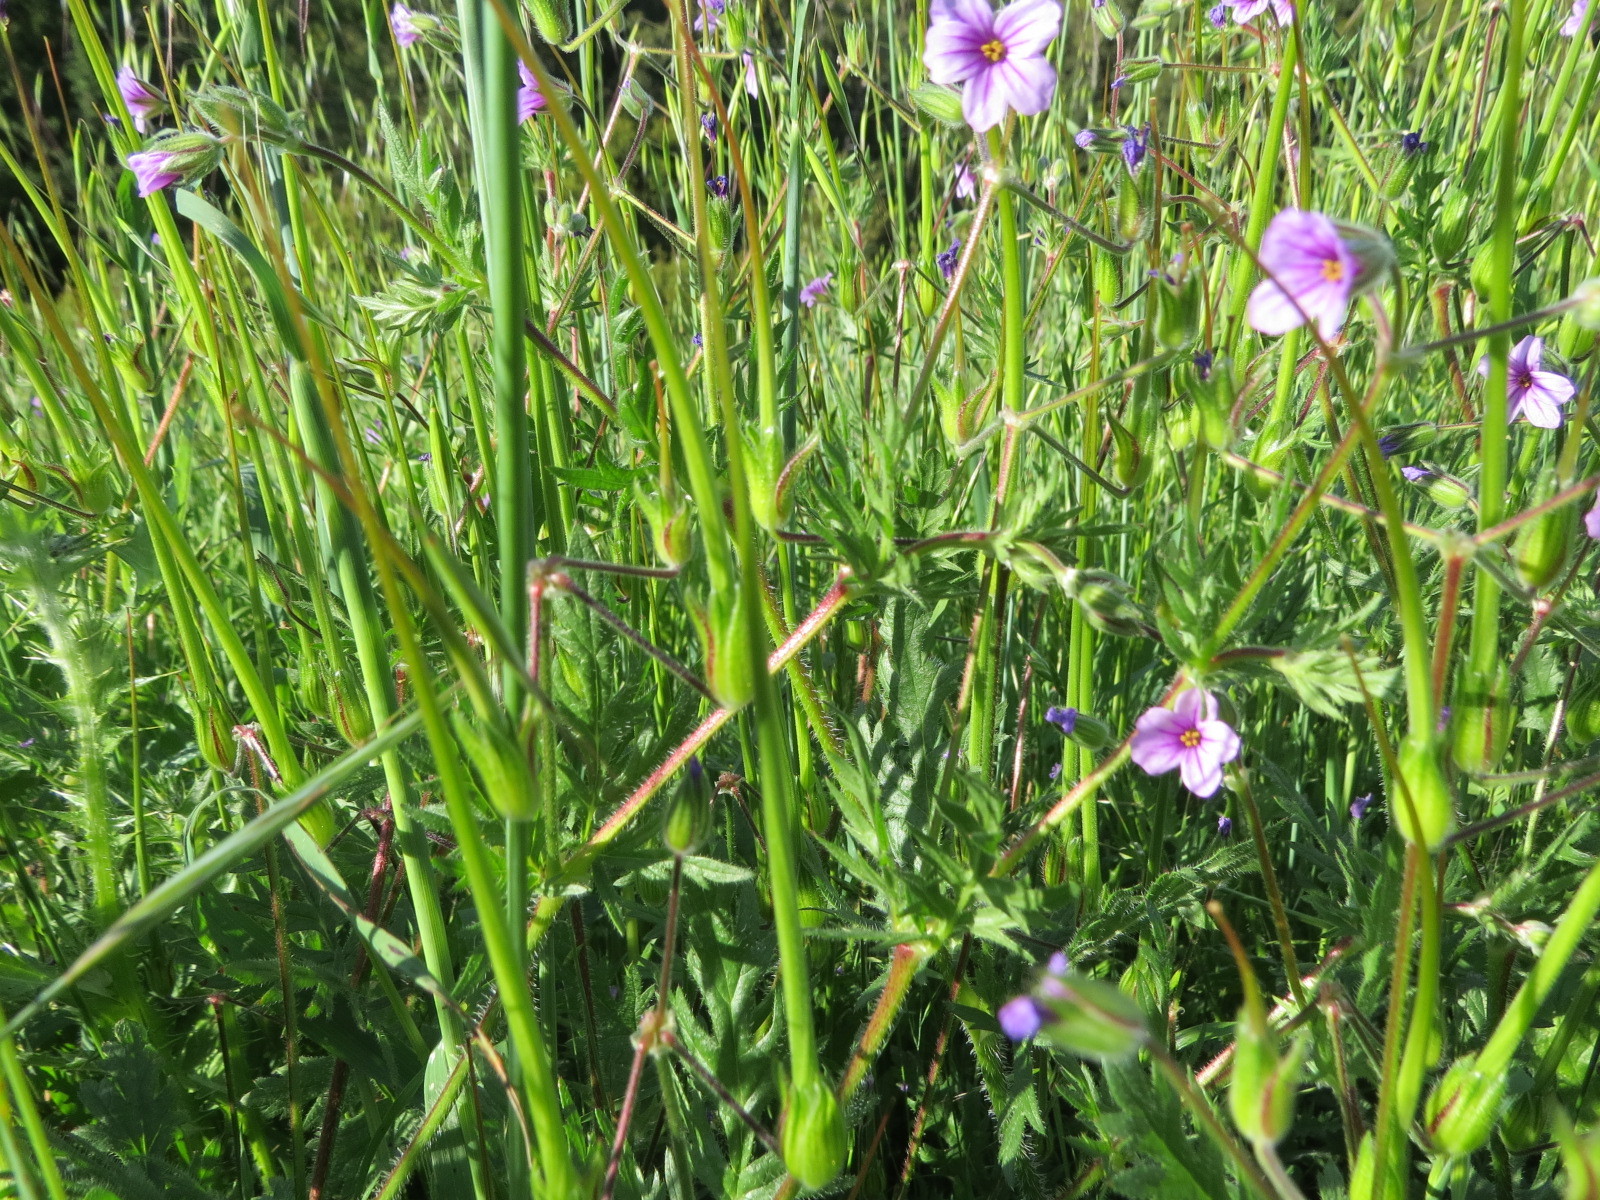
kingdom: Plantae
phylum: Tracheophyta
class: Magnoliopsida
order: Geraniales
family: Geraniaceae
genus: Erodium
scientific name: Erodium botrys
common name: Mediterranean stork's-bill
